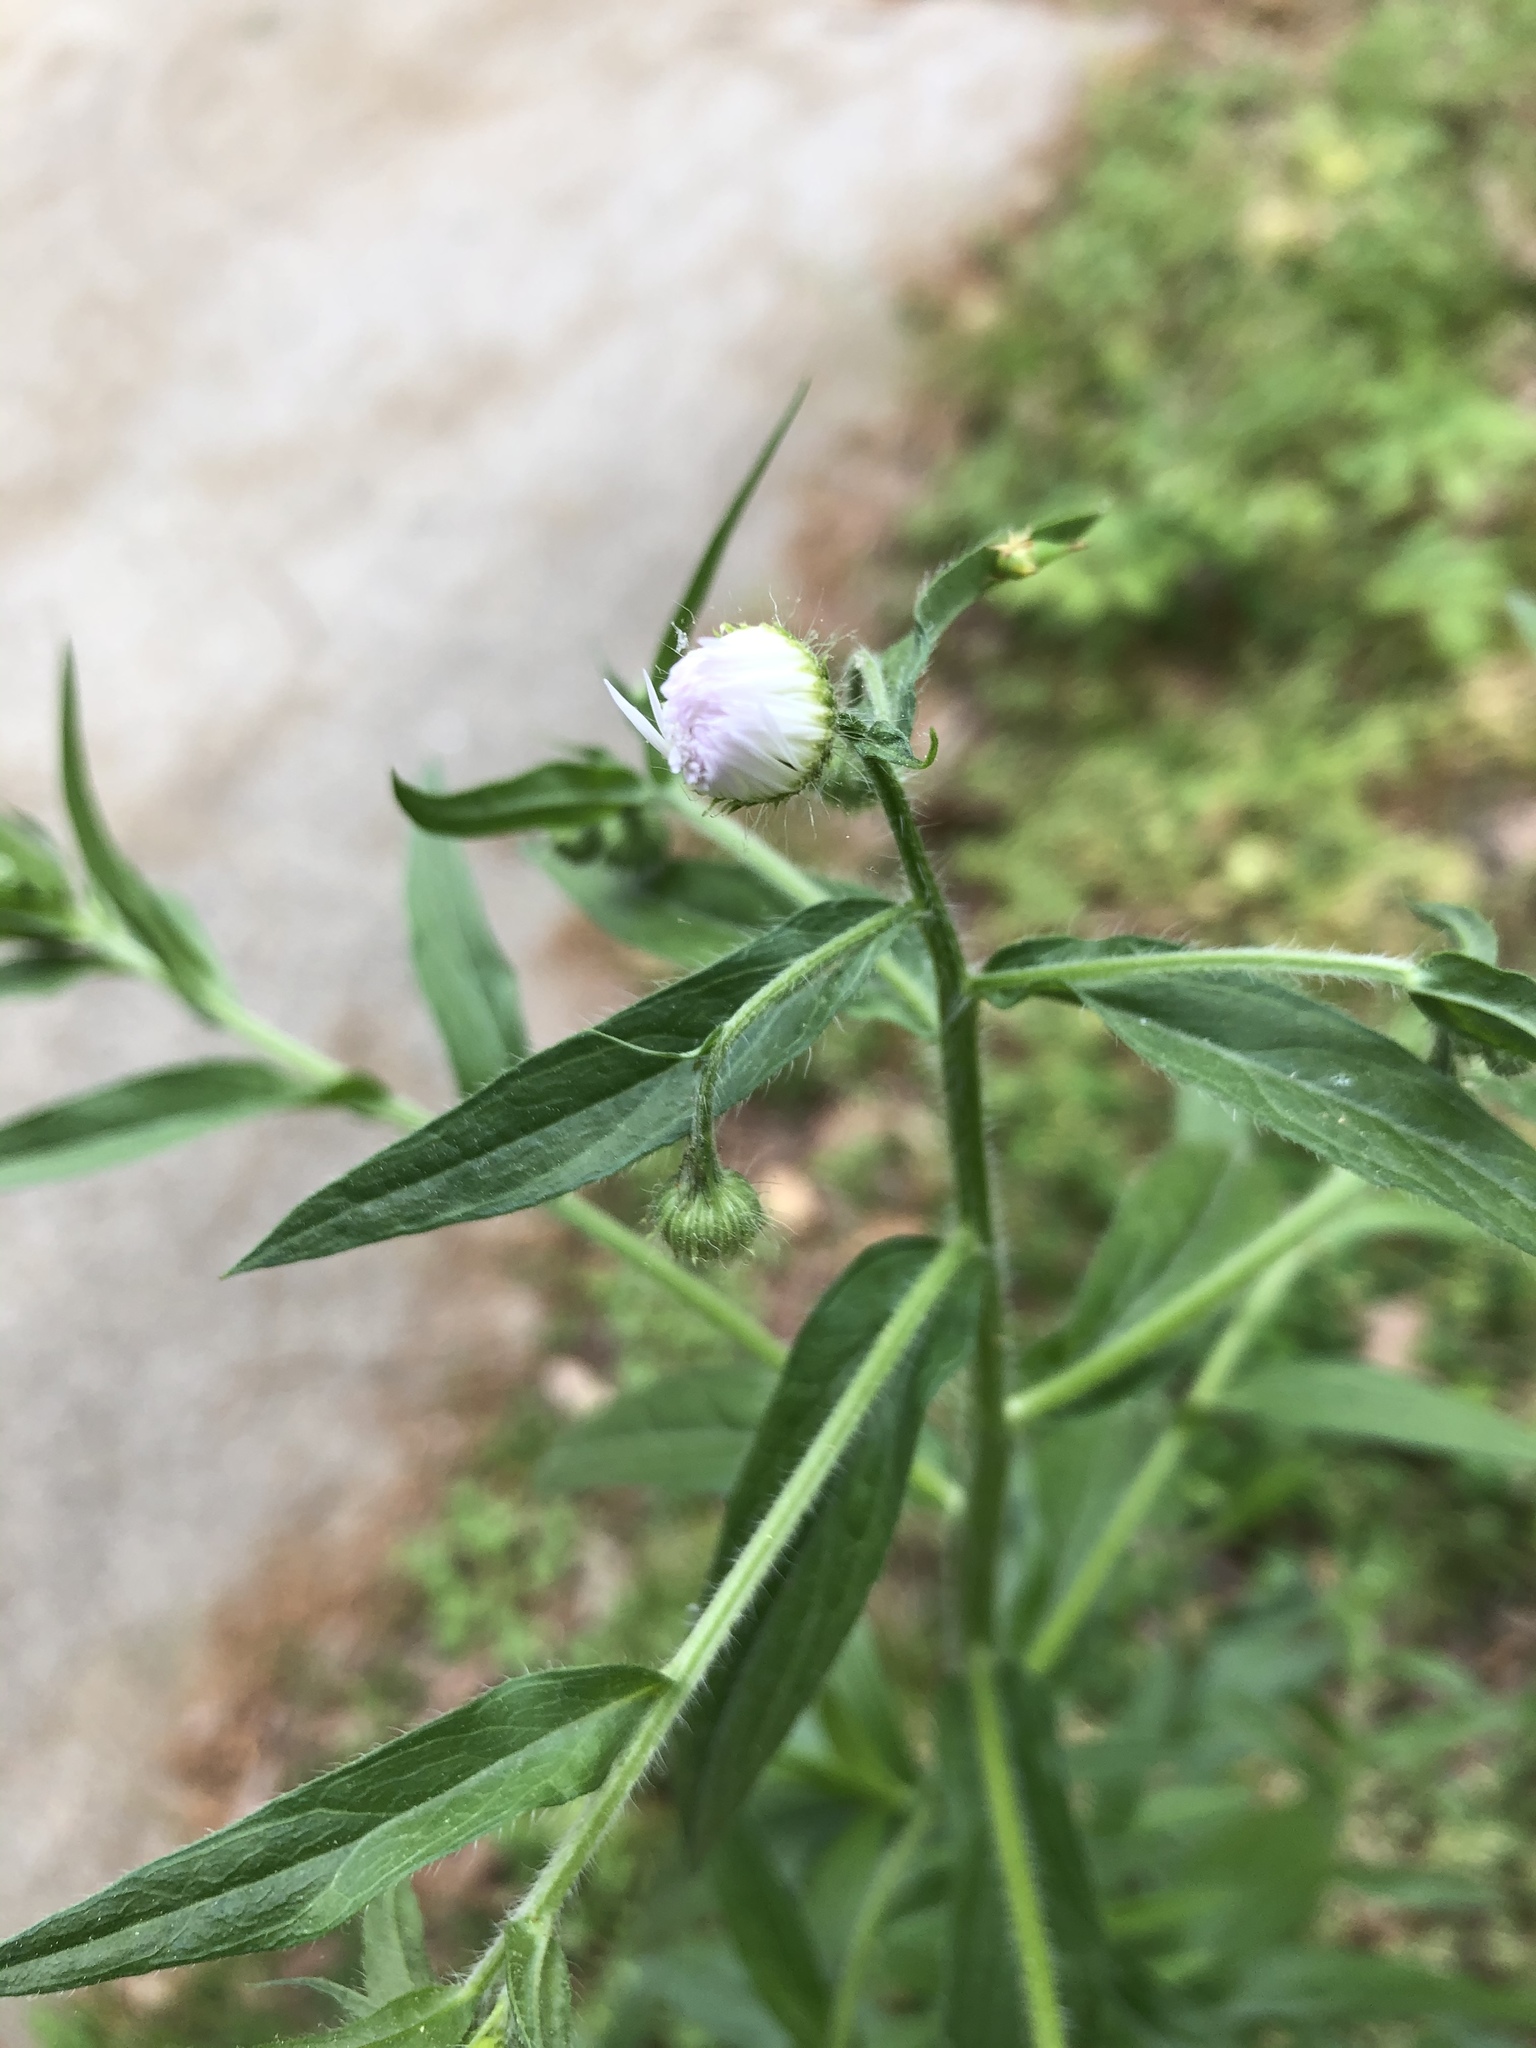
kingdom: Plantae
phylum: Tracheophyta
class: Magnoliopsida
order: Asterales
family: Asteraceae
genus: Erigeron
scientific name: Erigeron annuus
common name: Tall fleabane
